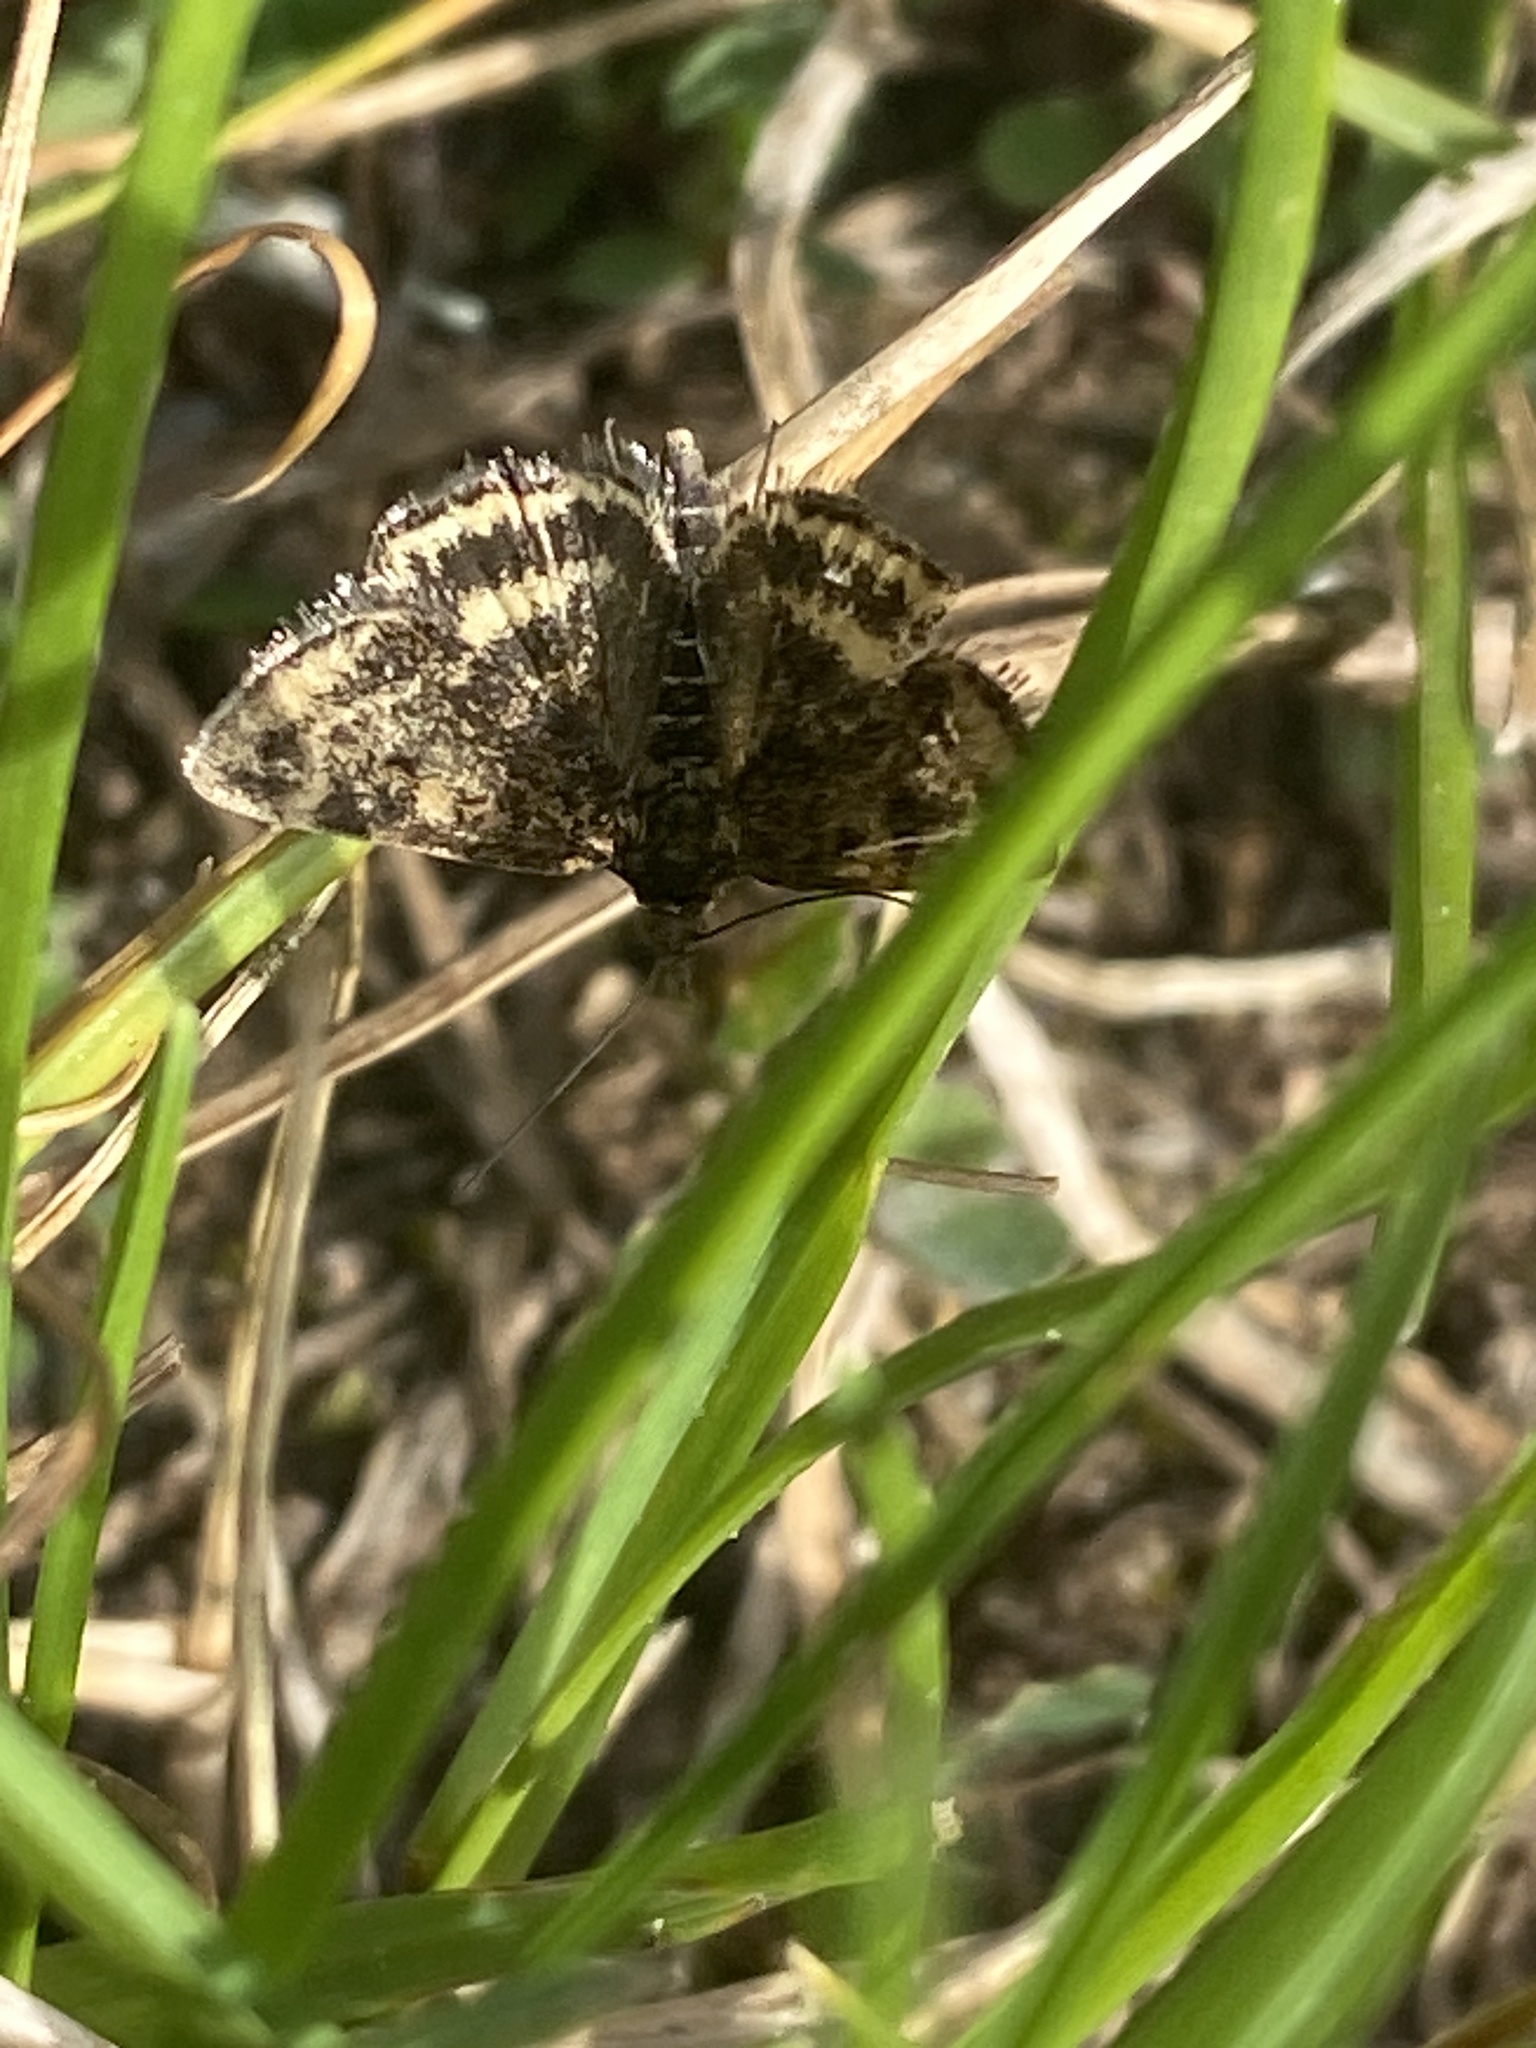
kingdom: Animalia
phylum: Arthropoda
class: Insecta
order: Lepidoptera
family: Crambidae
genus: Pyrausta
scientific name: Pyrausta despicata
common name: Straw-barred pearl
